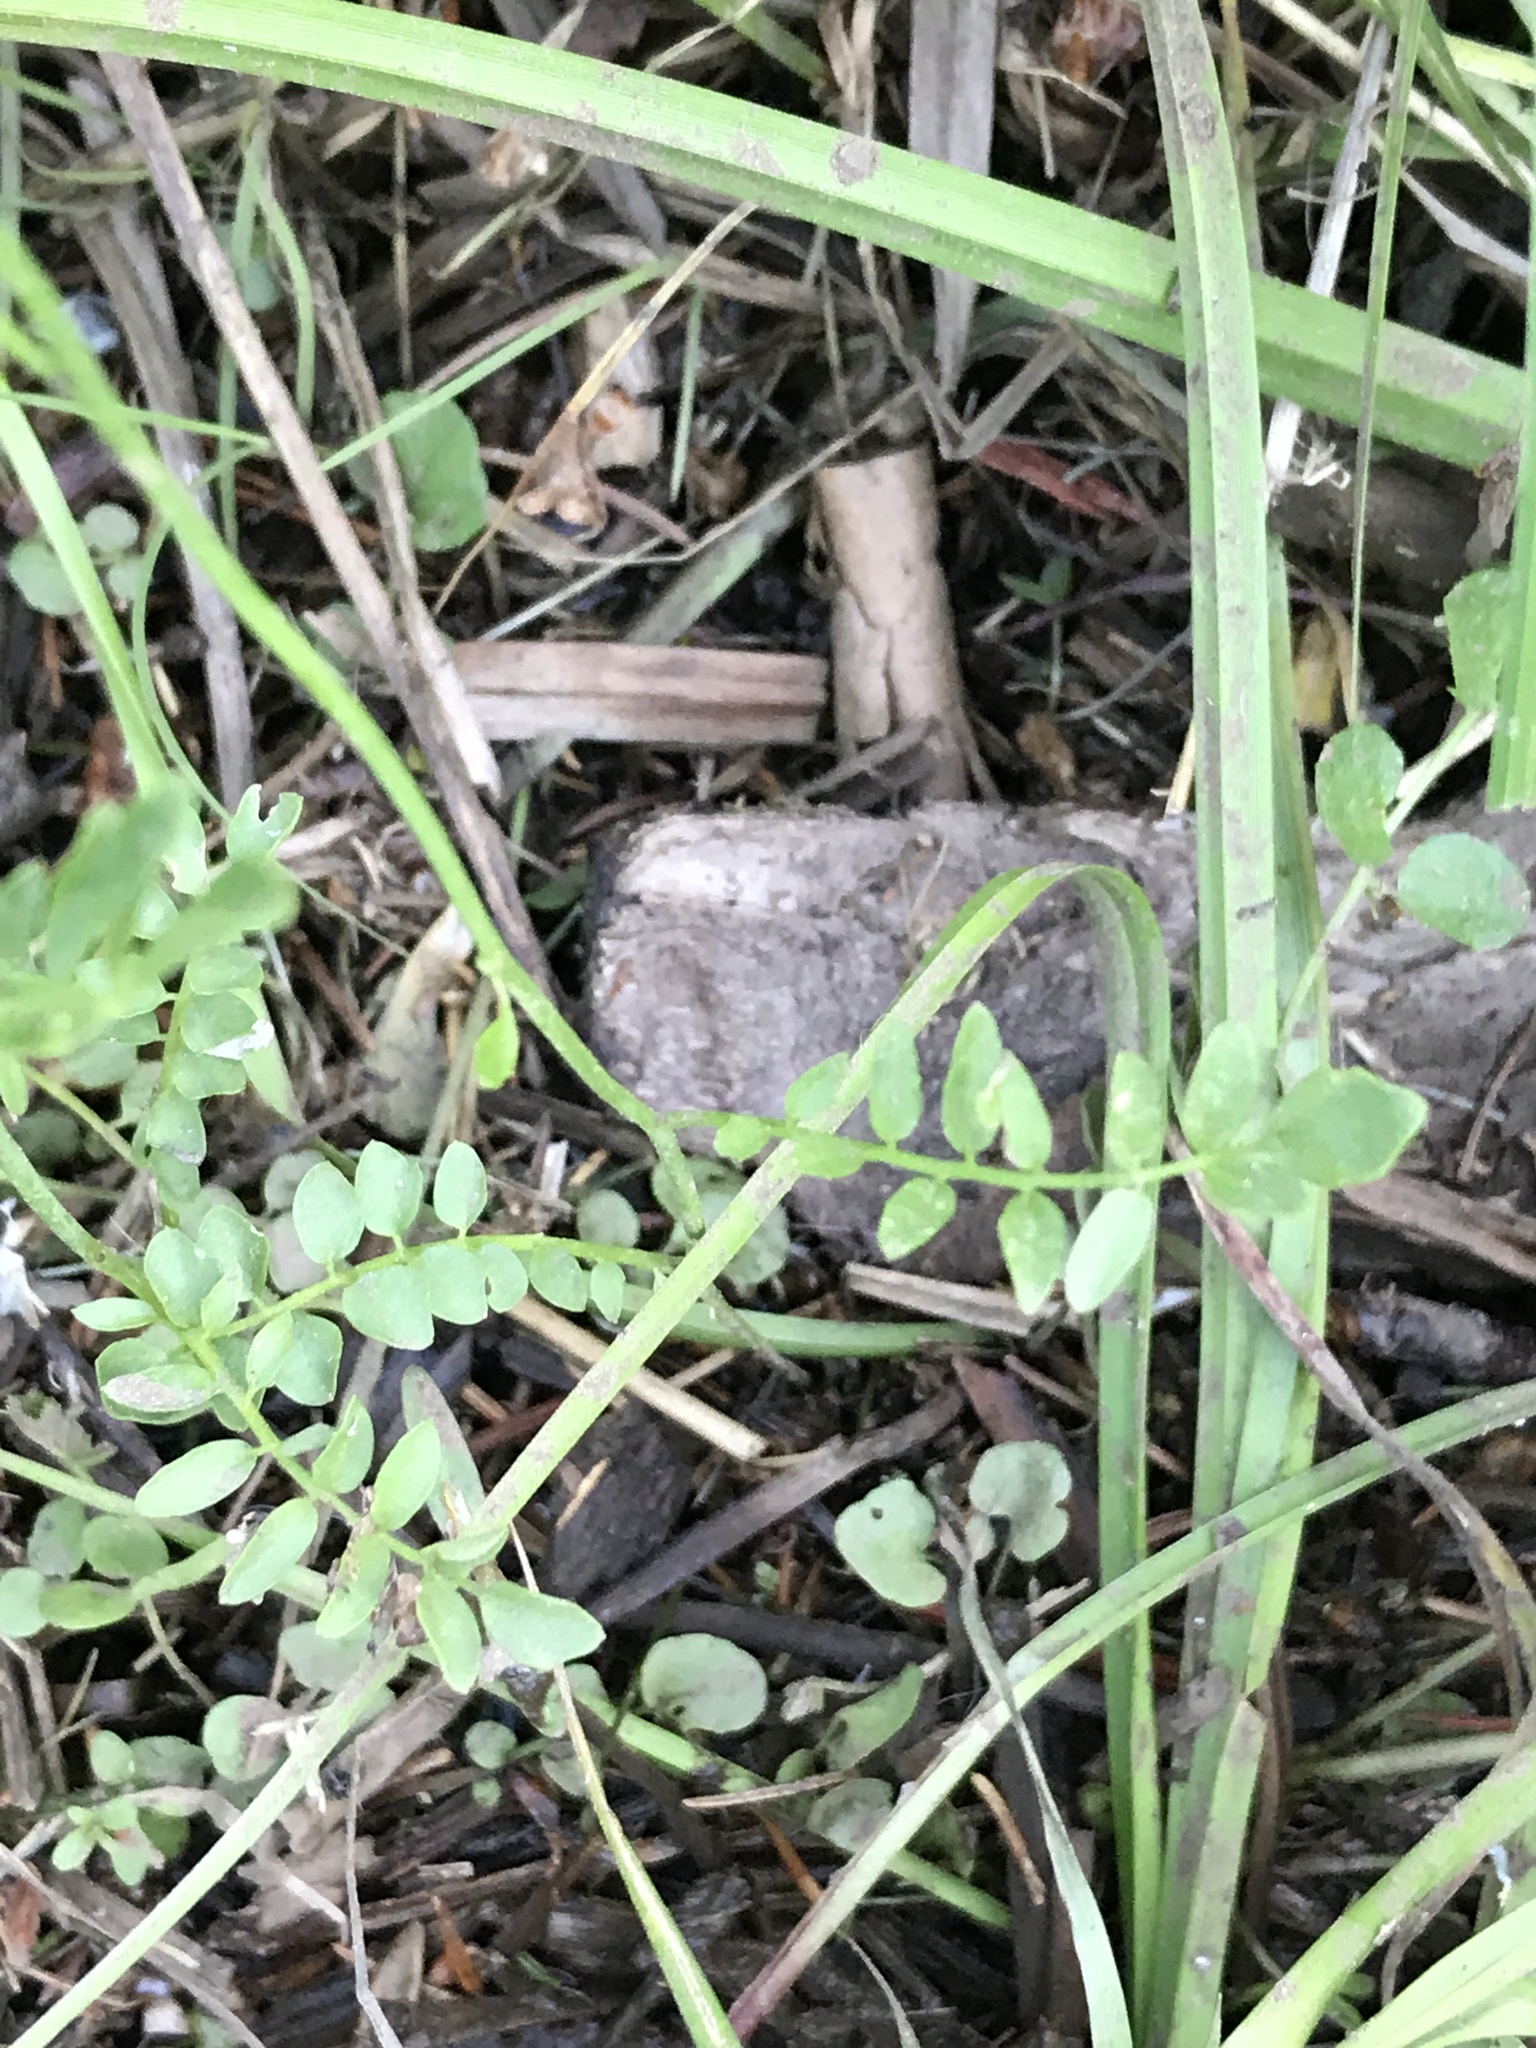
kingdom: Plantae
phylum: Tracheophyta
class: Magnoliopsida
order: Brassicales
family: Brassicaceae
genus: Cardamine
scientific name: Cardamine pratensis
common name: Cuckoo flower
